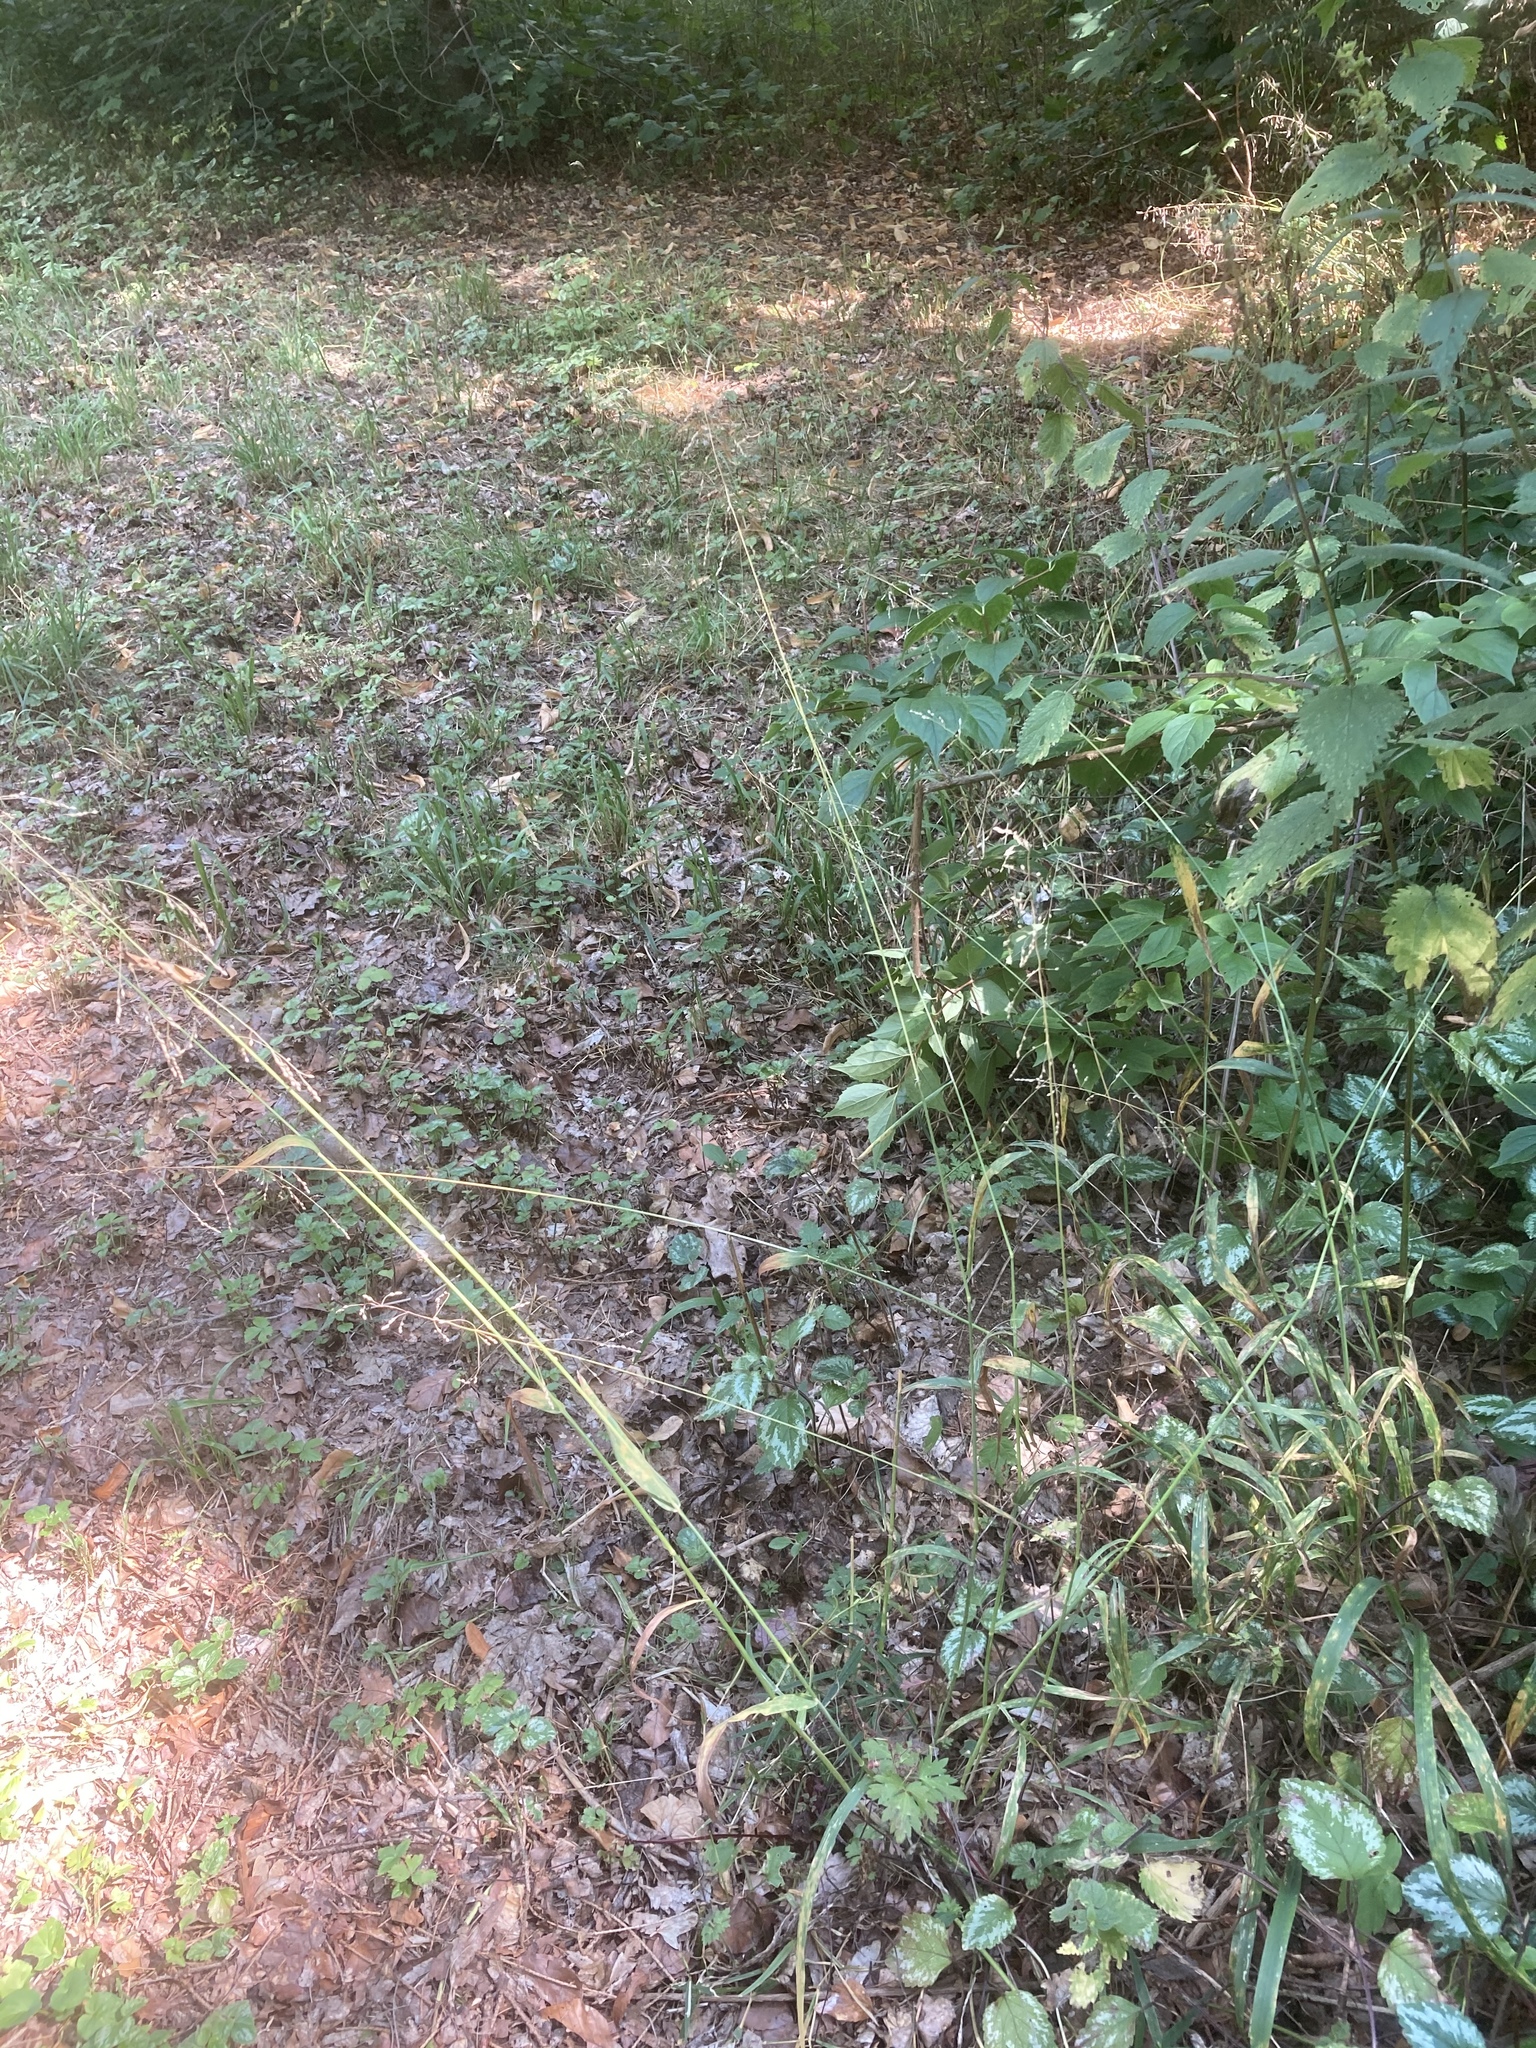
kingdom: Plantae
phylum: Tracheophyta
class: Liliopsida
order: Poales
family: Poaceae
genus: Milium
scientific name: Milium effusum
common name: Wood millet
